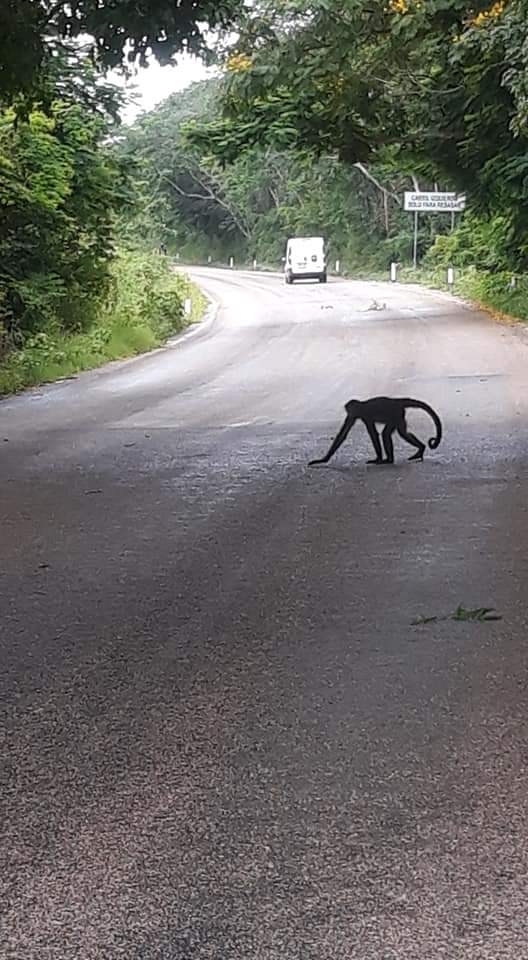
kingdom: Animalia
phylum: Chordata
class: Mammalia
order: Primates
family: Atelidae
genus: Ateles
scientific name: Ateles geoffroyi
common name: Black-handed spider monkey
